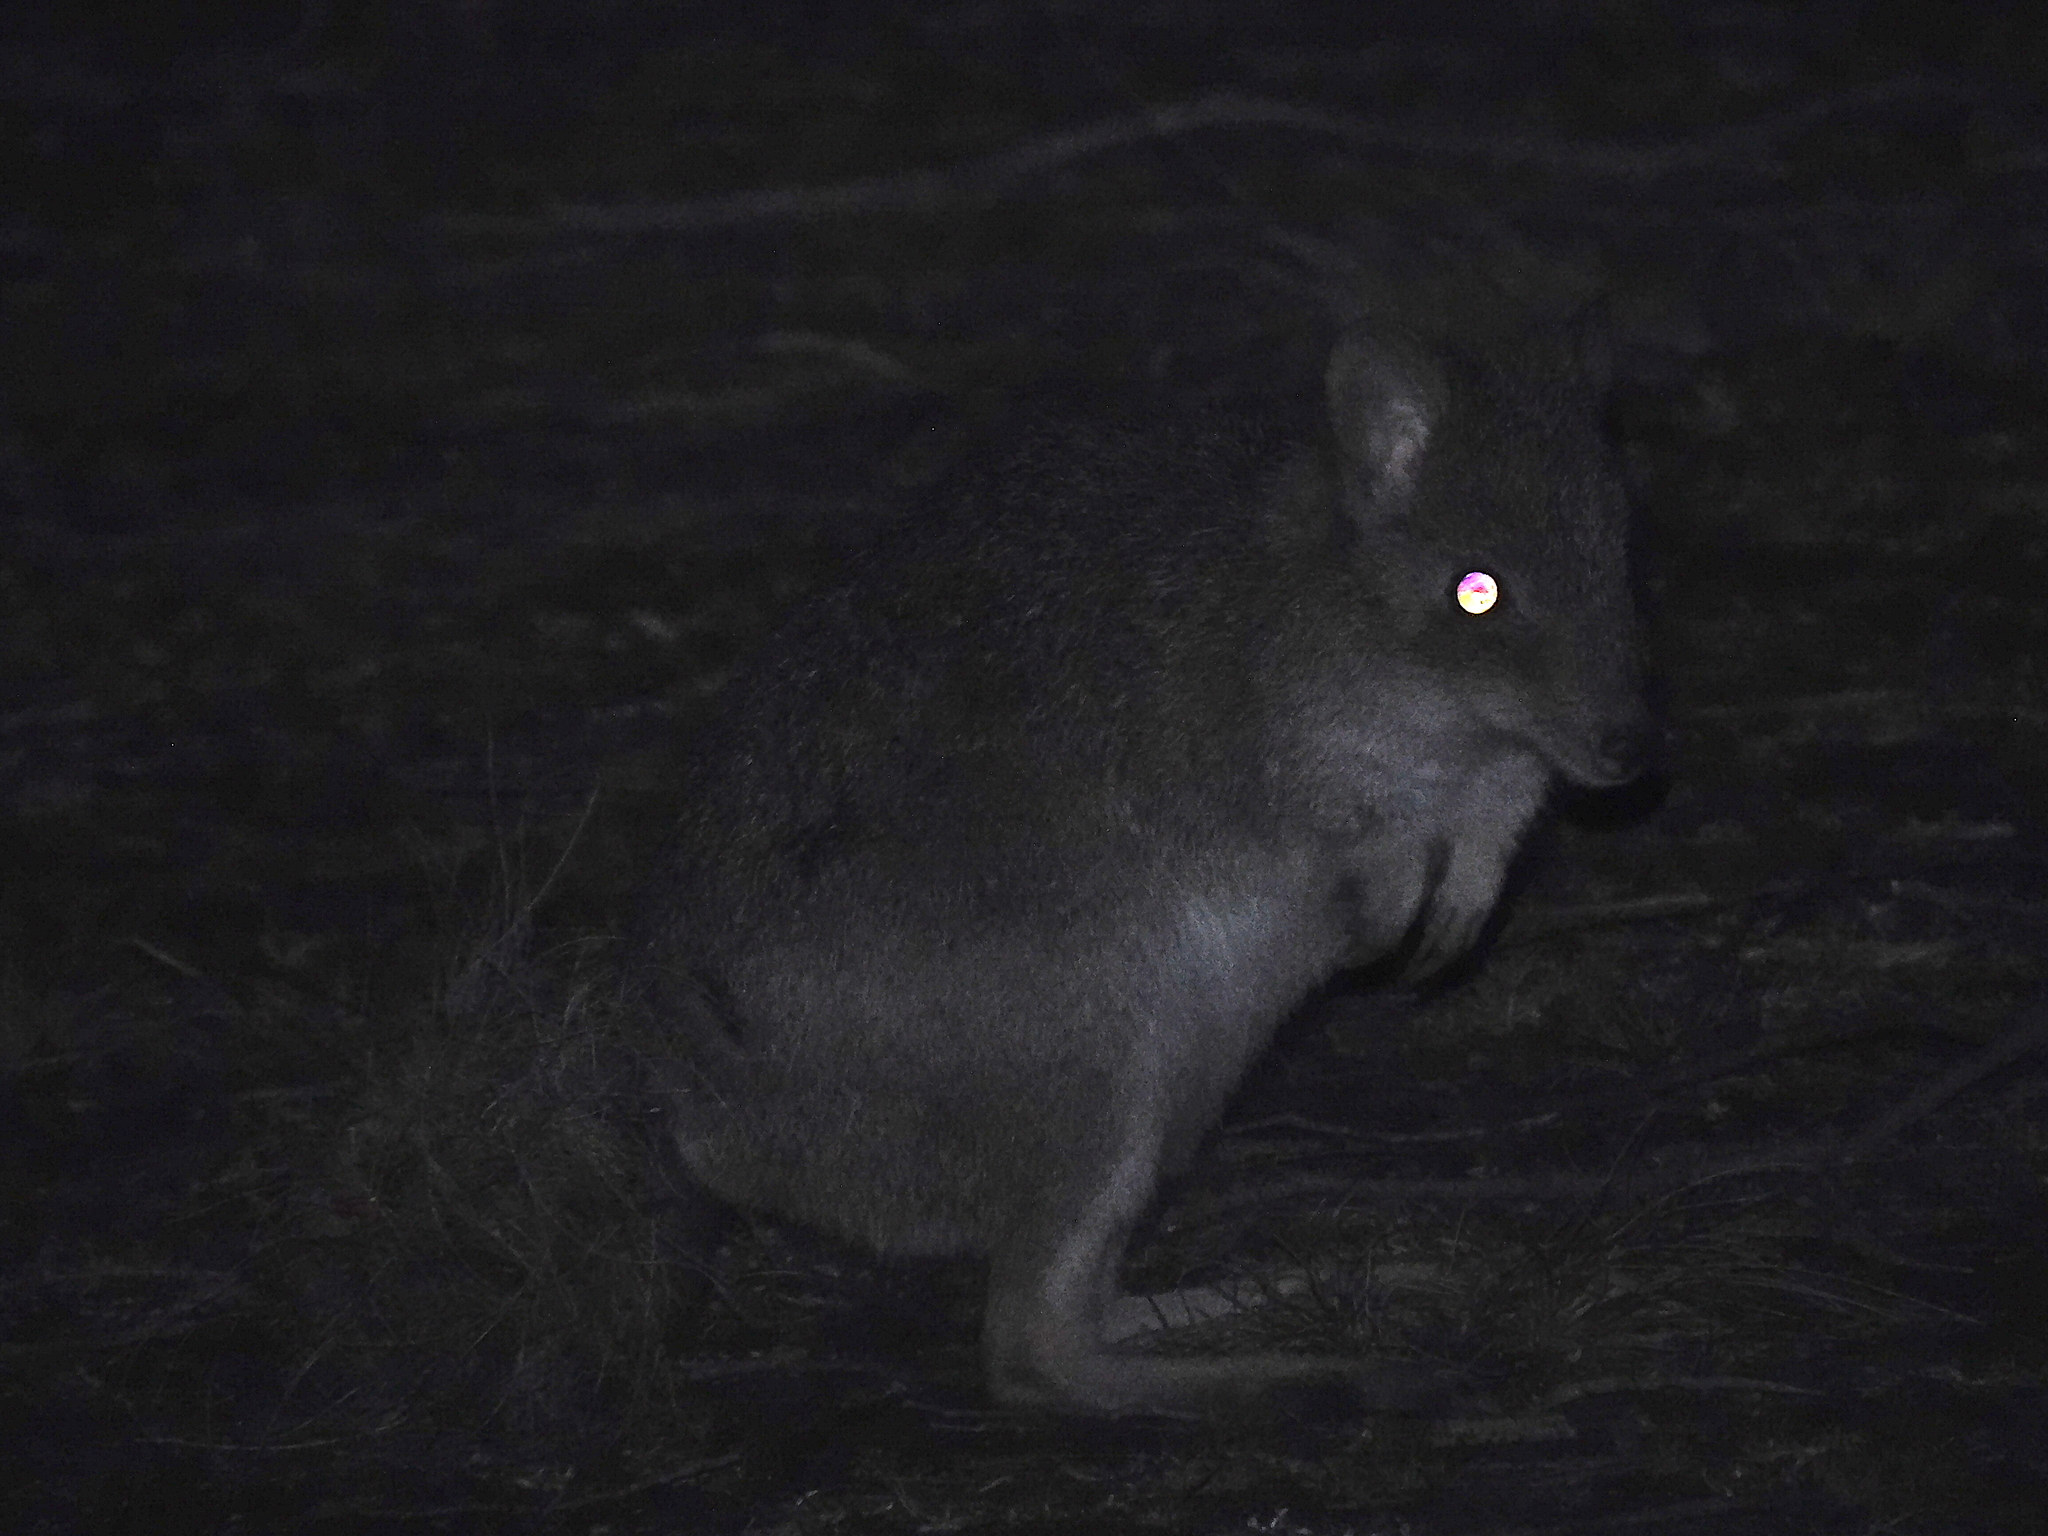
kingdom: Animalia
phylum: Chordata
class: Mammalia
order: Diprotodontia
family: Potoroidae
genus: Bettongia
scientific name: Bettongia gaimardi
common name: Eastern bettong
